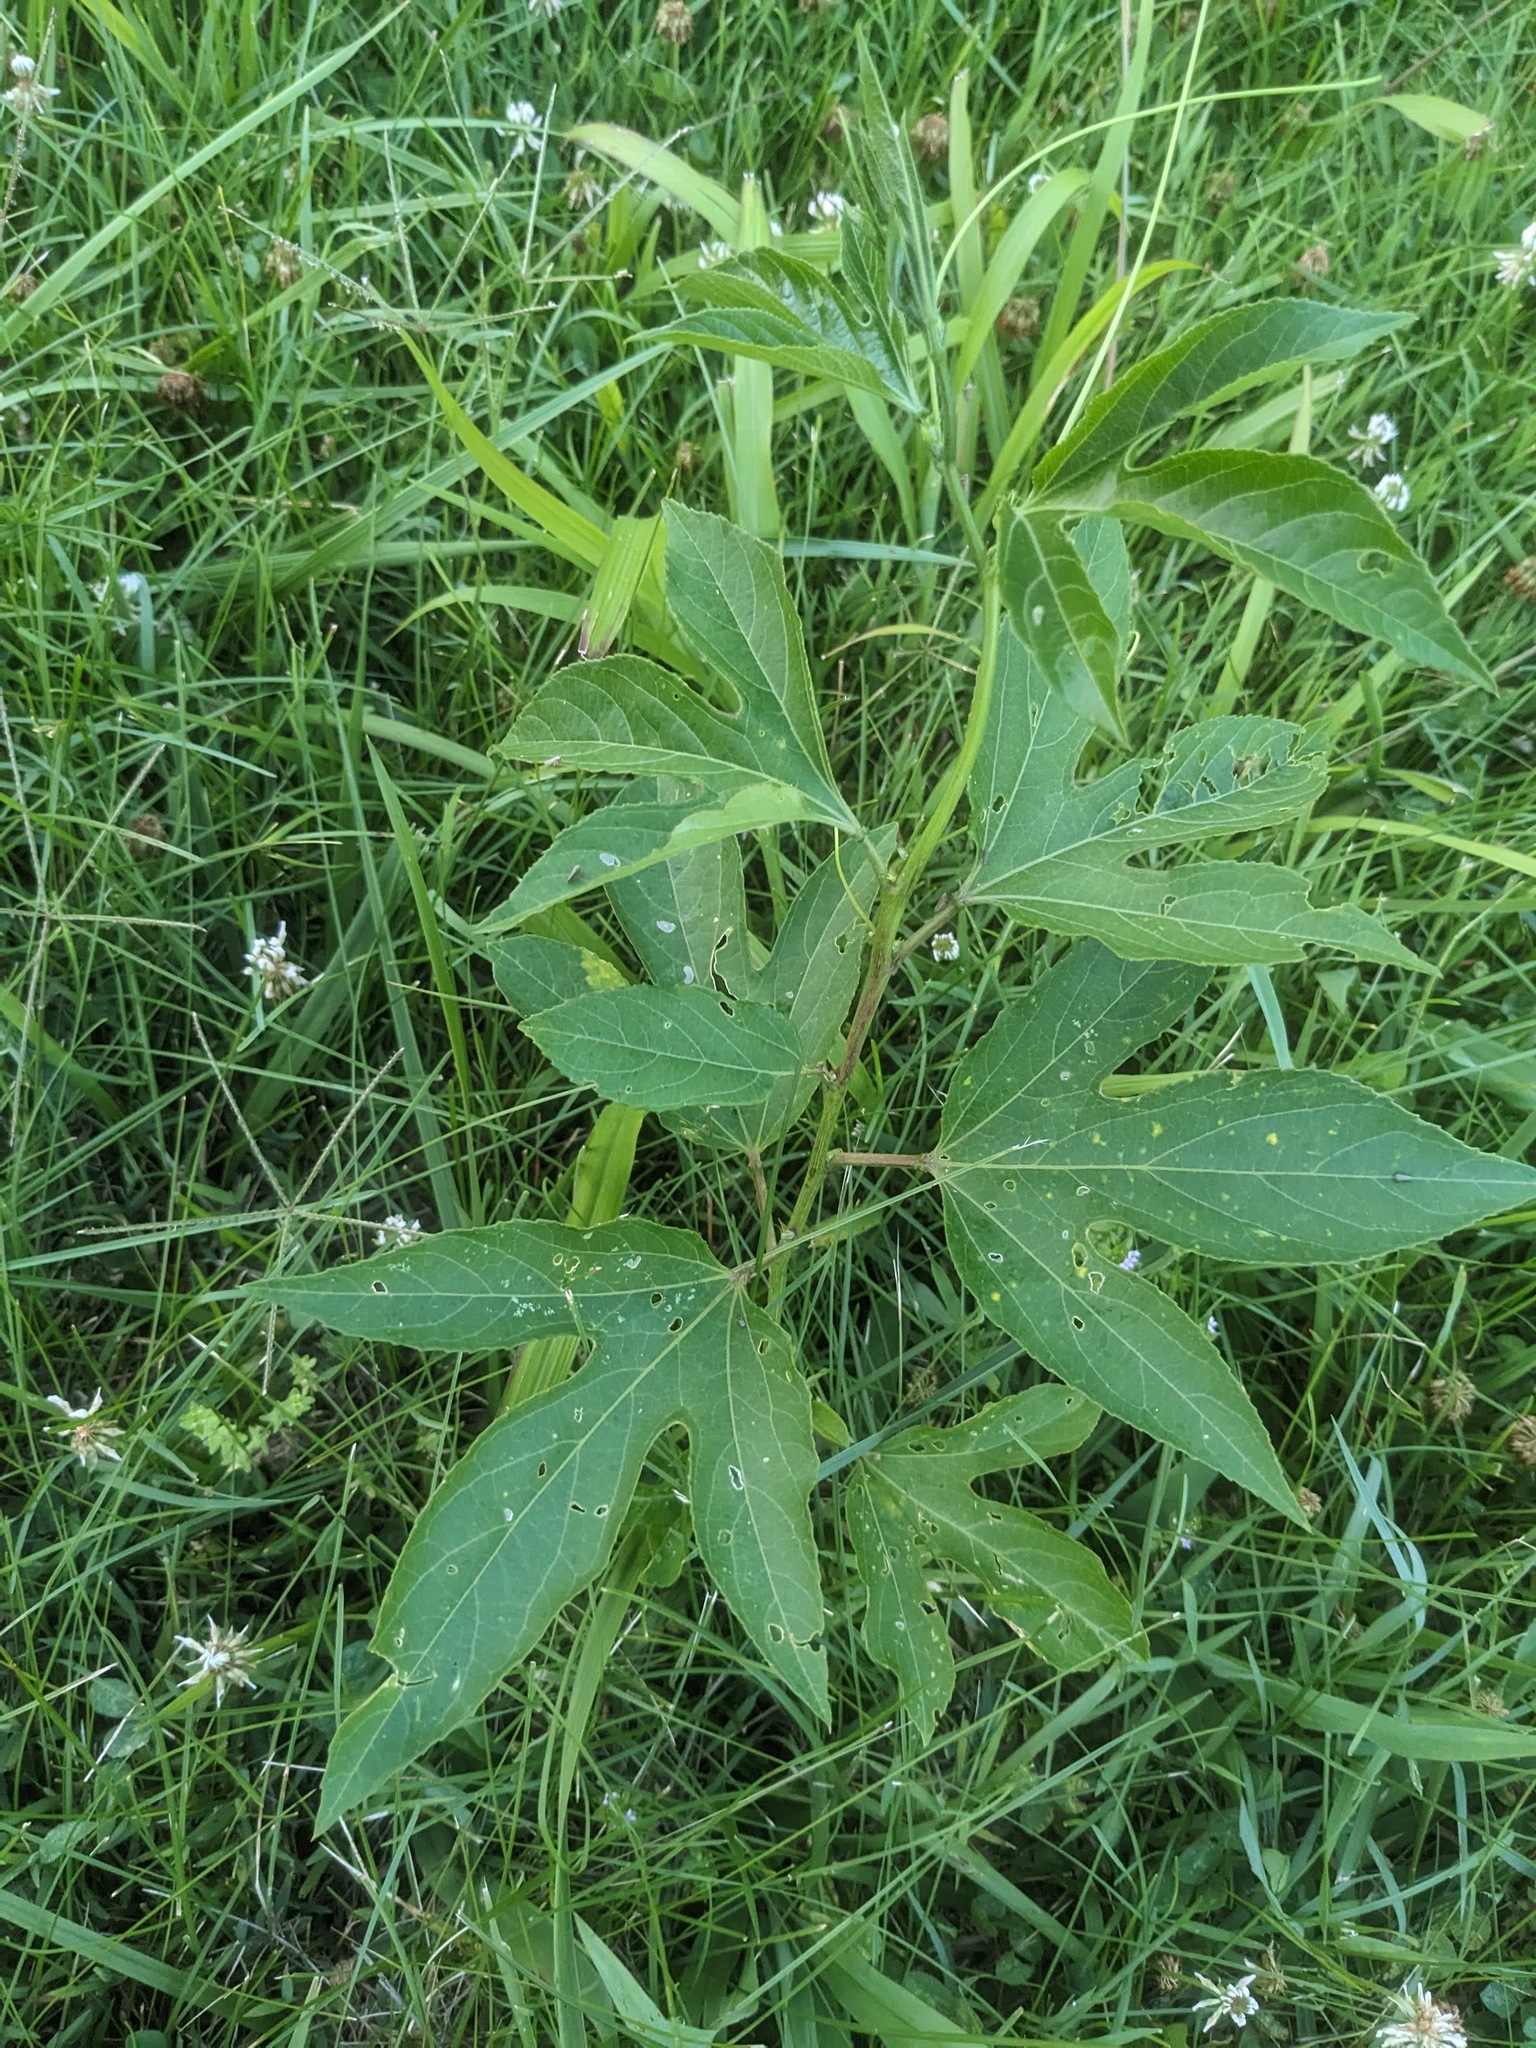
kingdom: Plantae
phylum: Tracheophyta
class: Magnoliopsida
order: Malpighiales
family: Passifloraceae
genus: Passiflora
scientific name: Passiflora incarnata
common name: Apricot-vine
